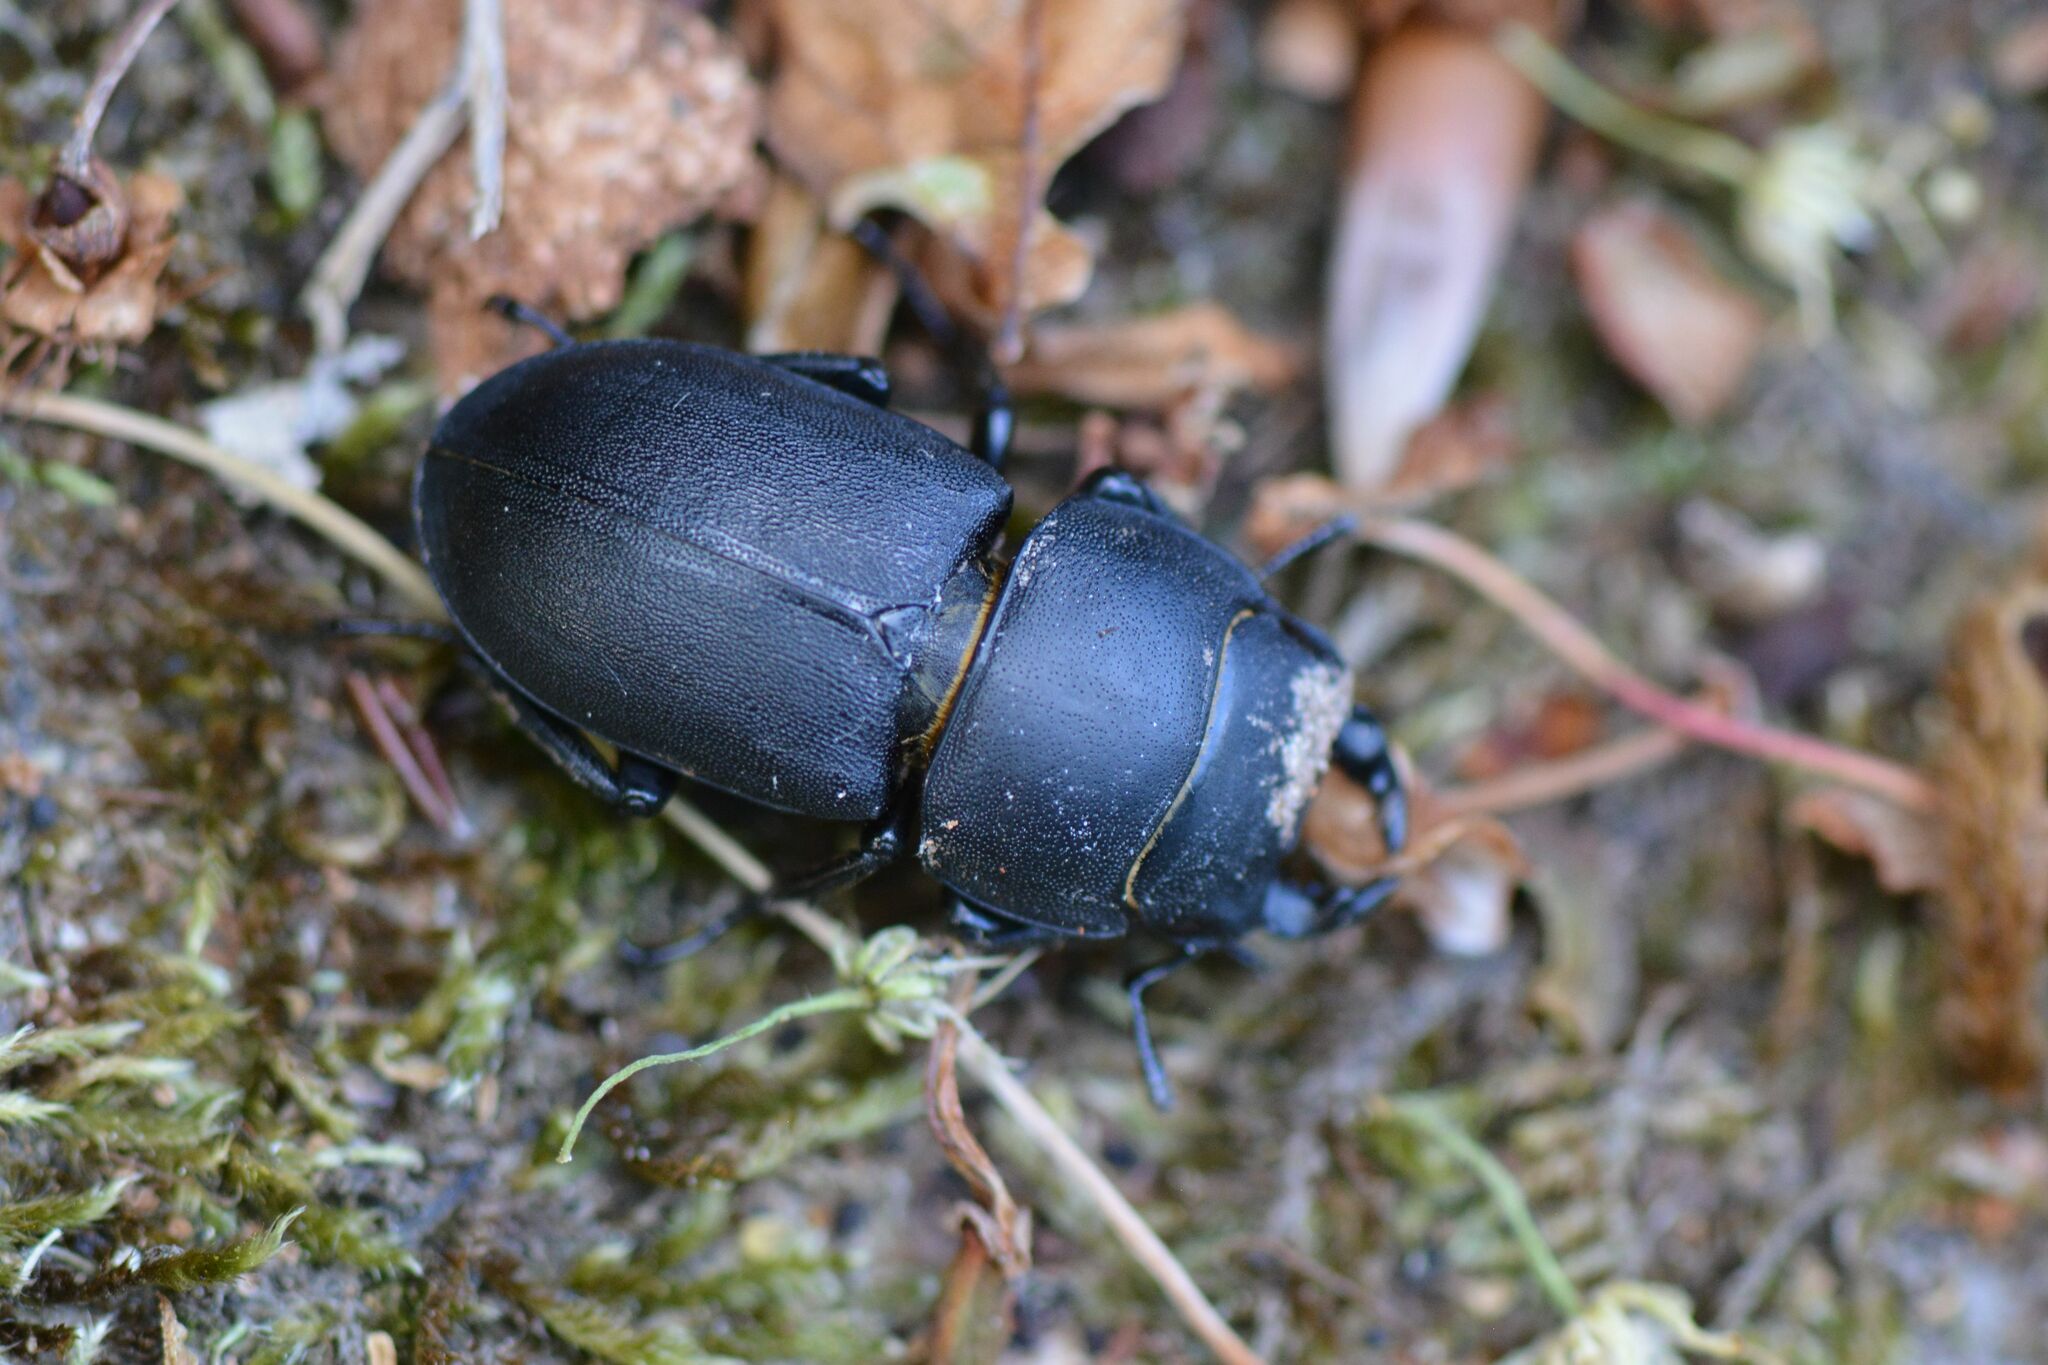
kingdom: Animalia
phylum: Arthropoda
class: Insecta
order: Coleoptera
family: Lucanidae
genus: Dorcus
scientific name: Dorcus parallelipipedus
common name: Lesser stag beetle
